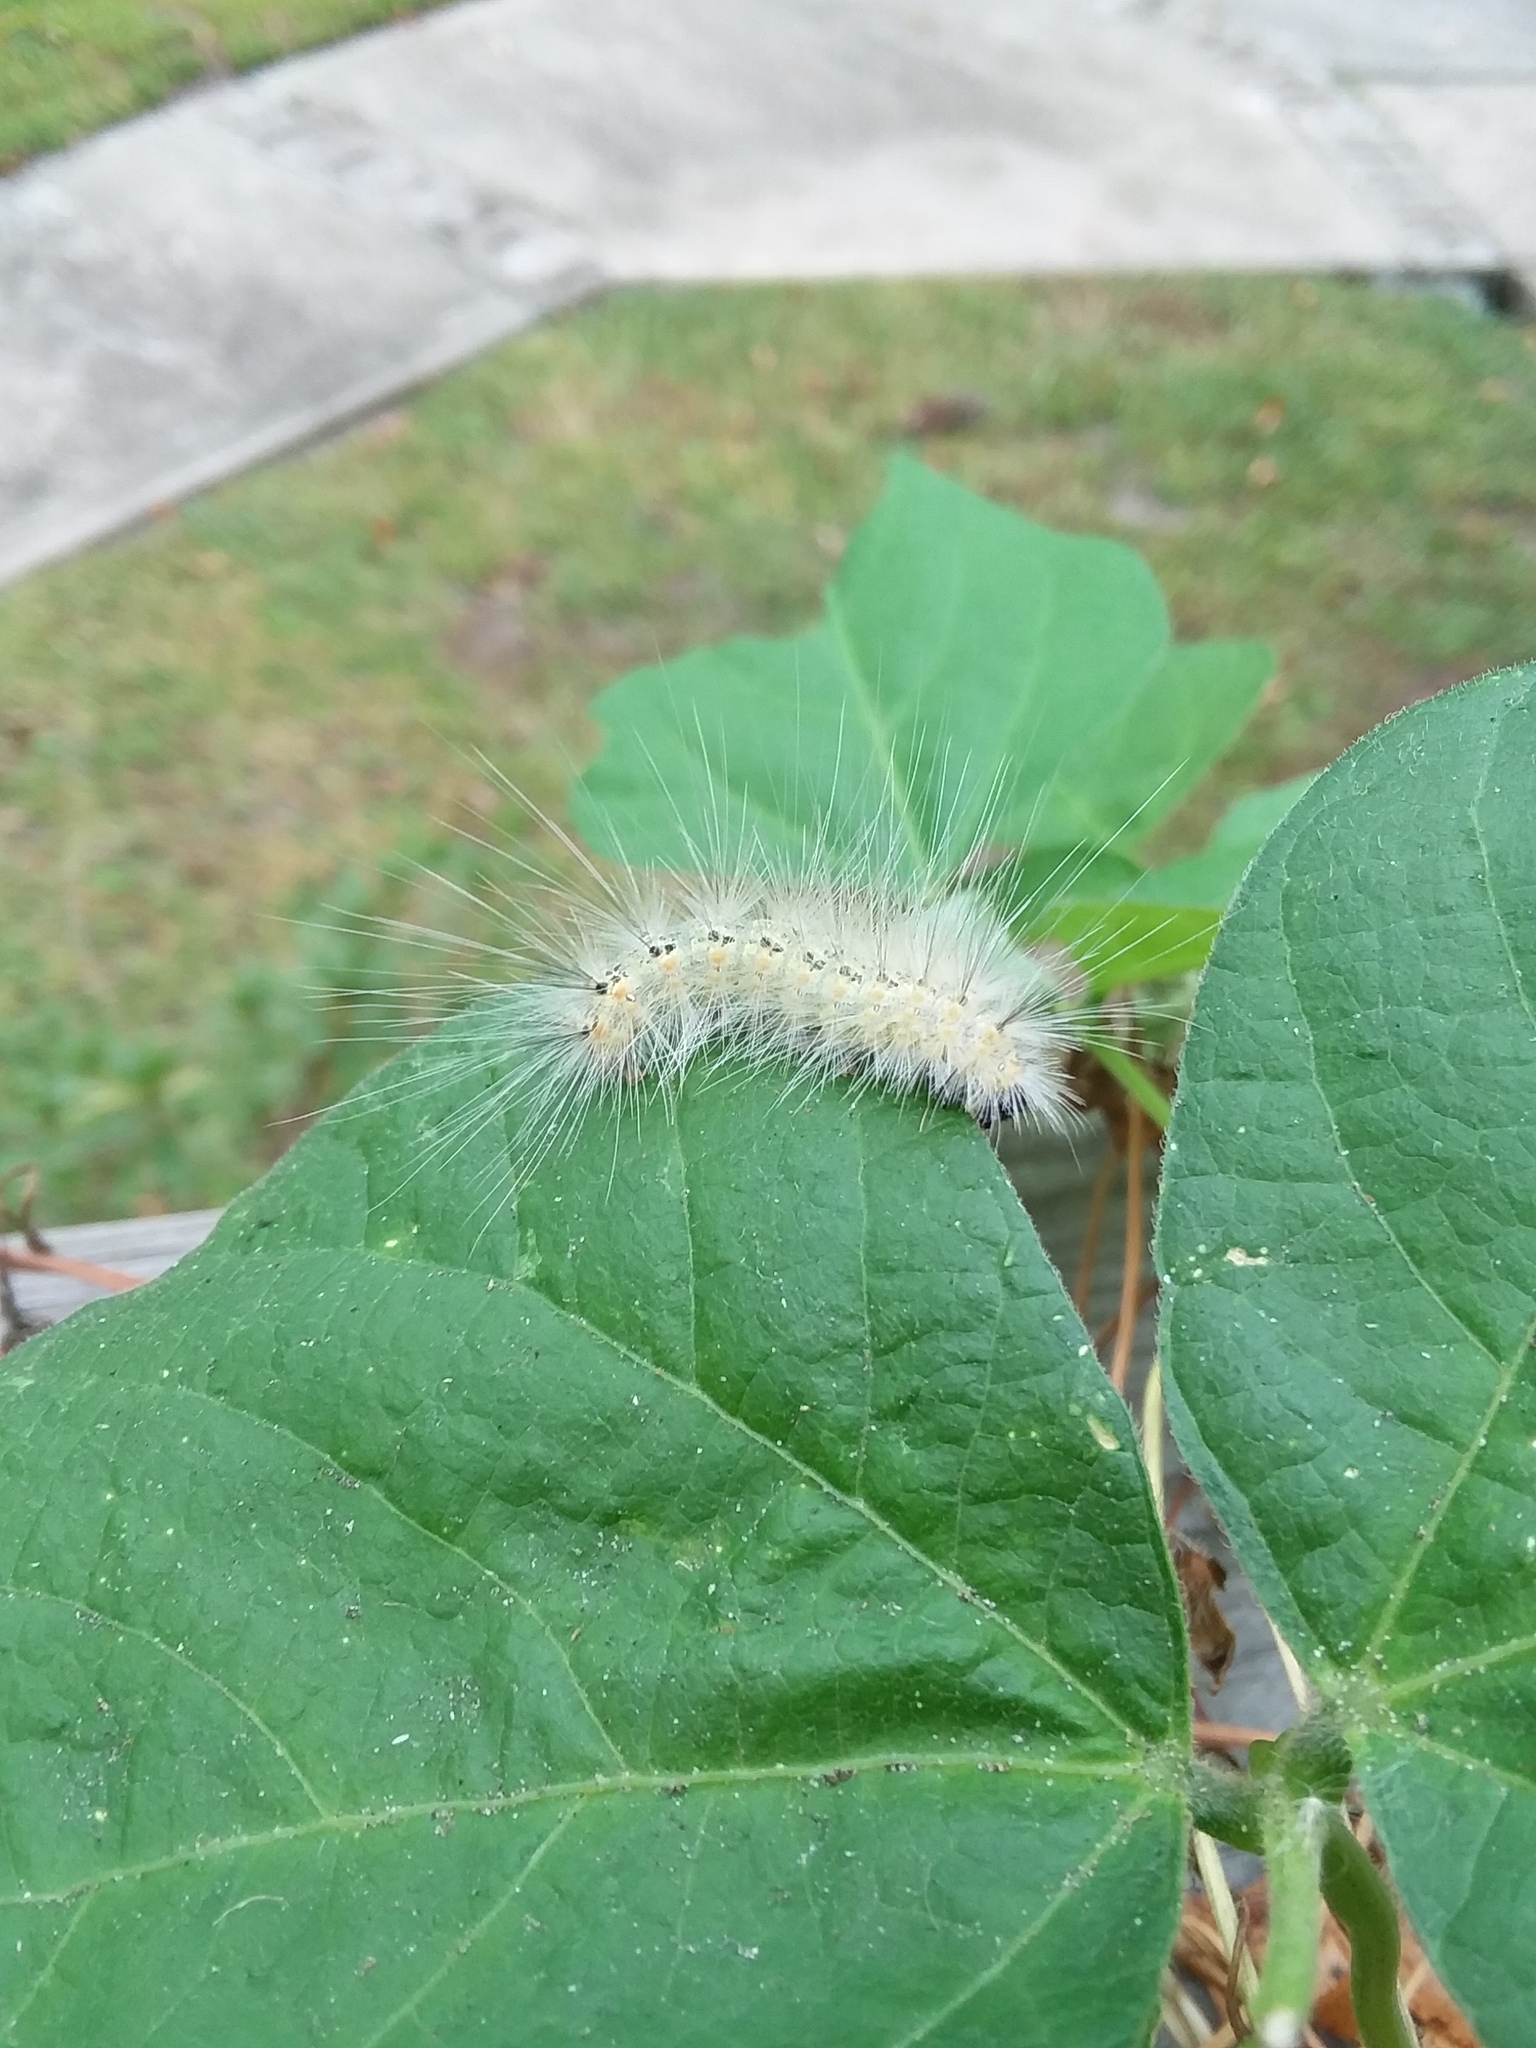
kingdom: Animalia
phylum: Arthropoda
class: Insecta
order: Lepidoptera
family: Erebidae
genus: Hyphantria
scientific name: Hyphantria cunea
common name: American white moth
